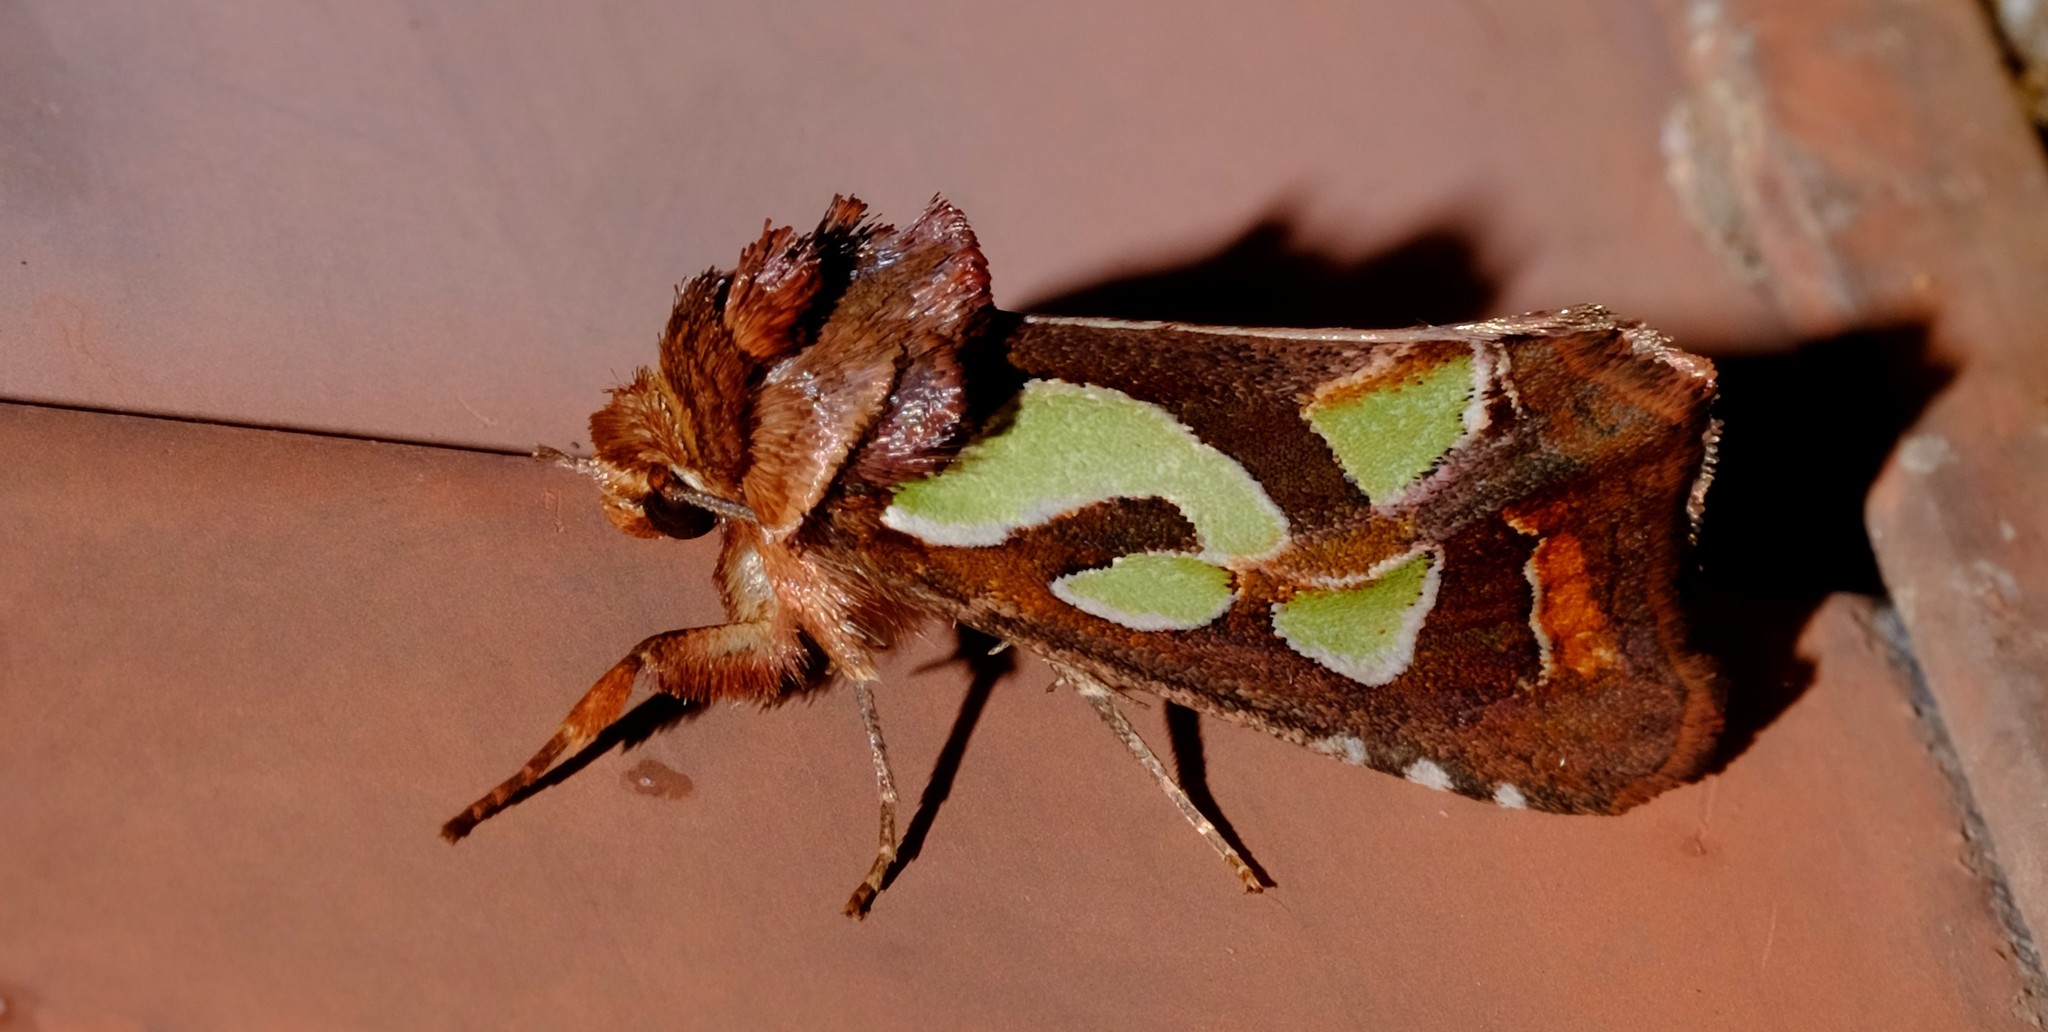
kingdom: Animalia
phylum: Arthropoda
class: Insecta
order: Lepidoptera
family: Noctuidae
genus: Cosmodes
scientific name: Cosmodes elegans
